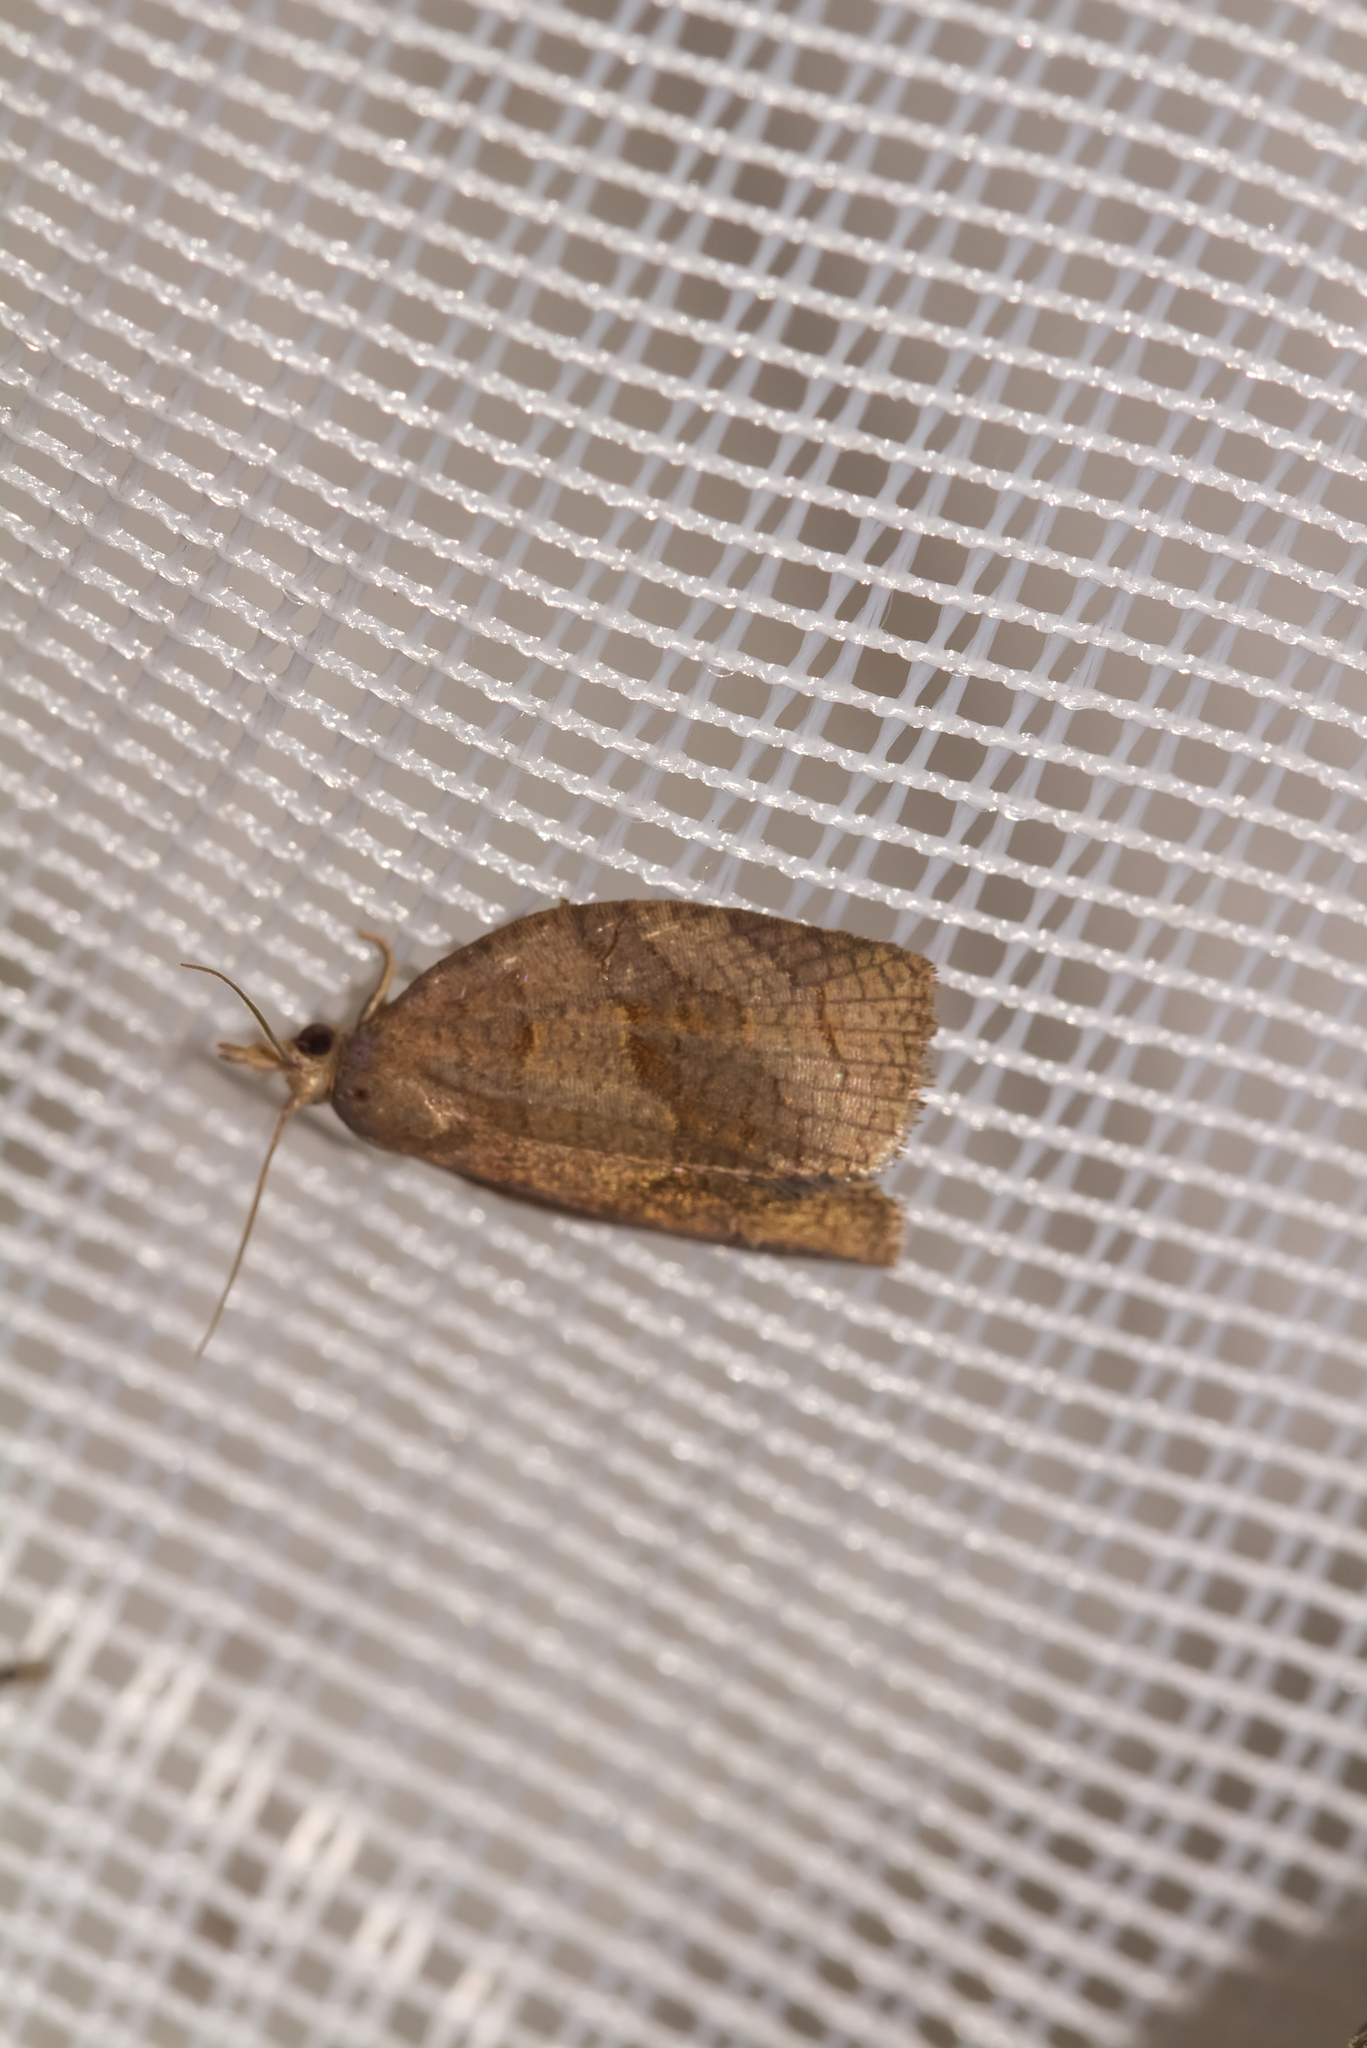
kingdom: Animalia
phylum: Arthropoda
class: Insecta
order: Lepidoptera
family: Tortricidae
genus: Pandemis
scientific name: Pandemis dumetana
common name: Thicket twist
